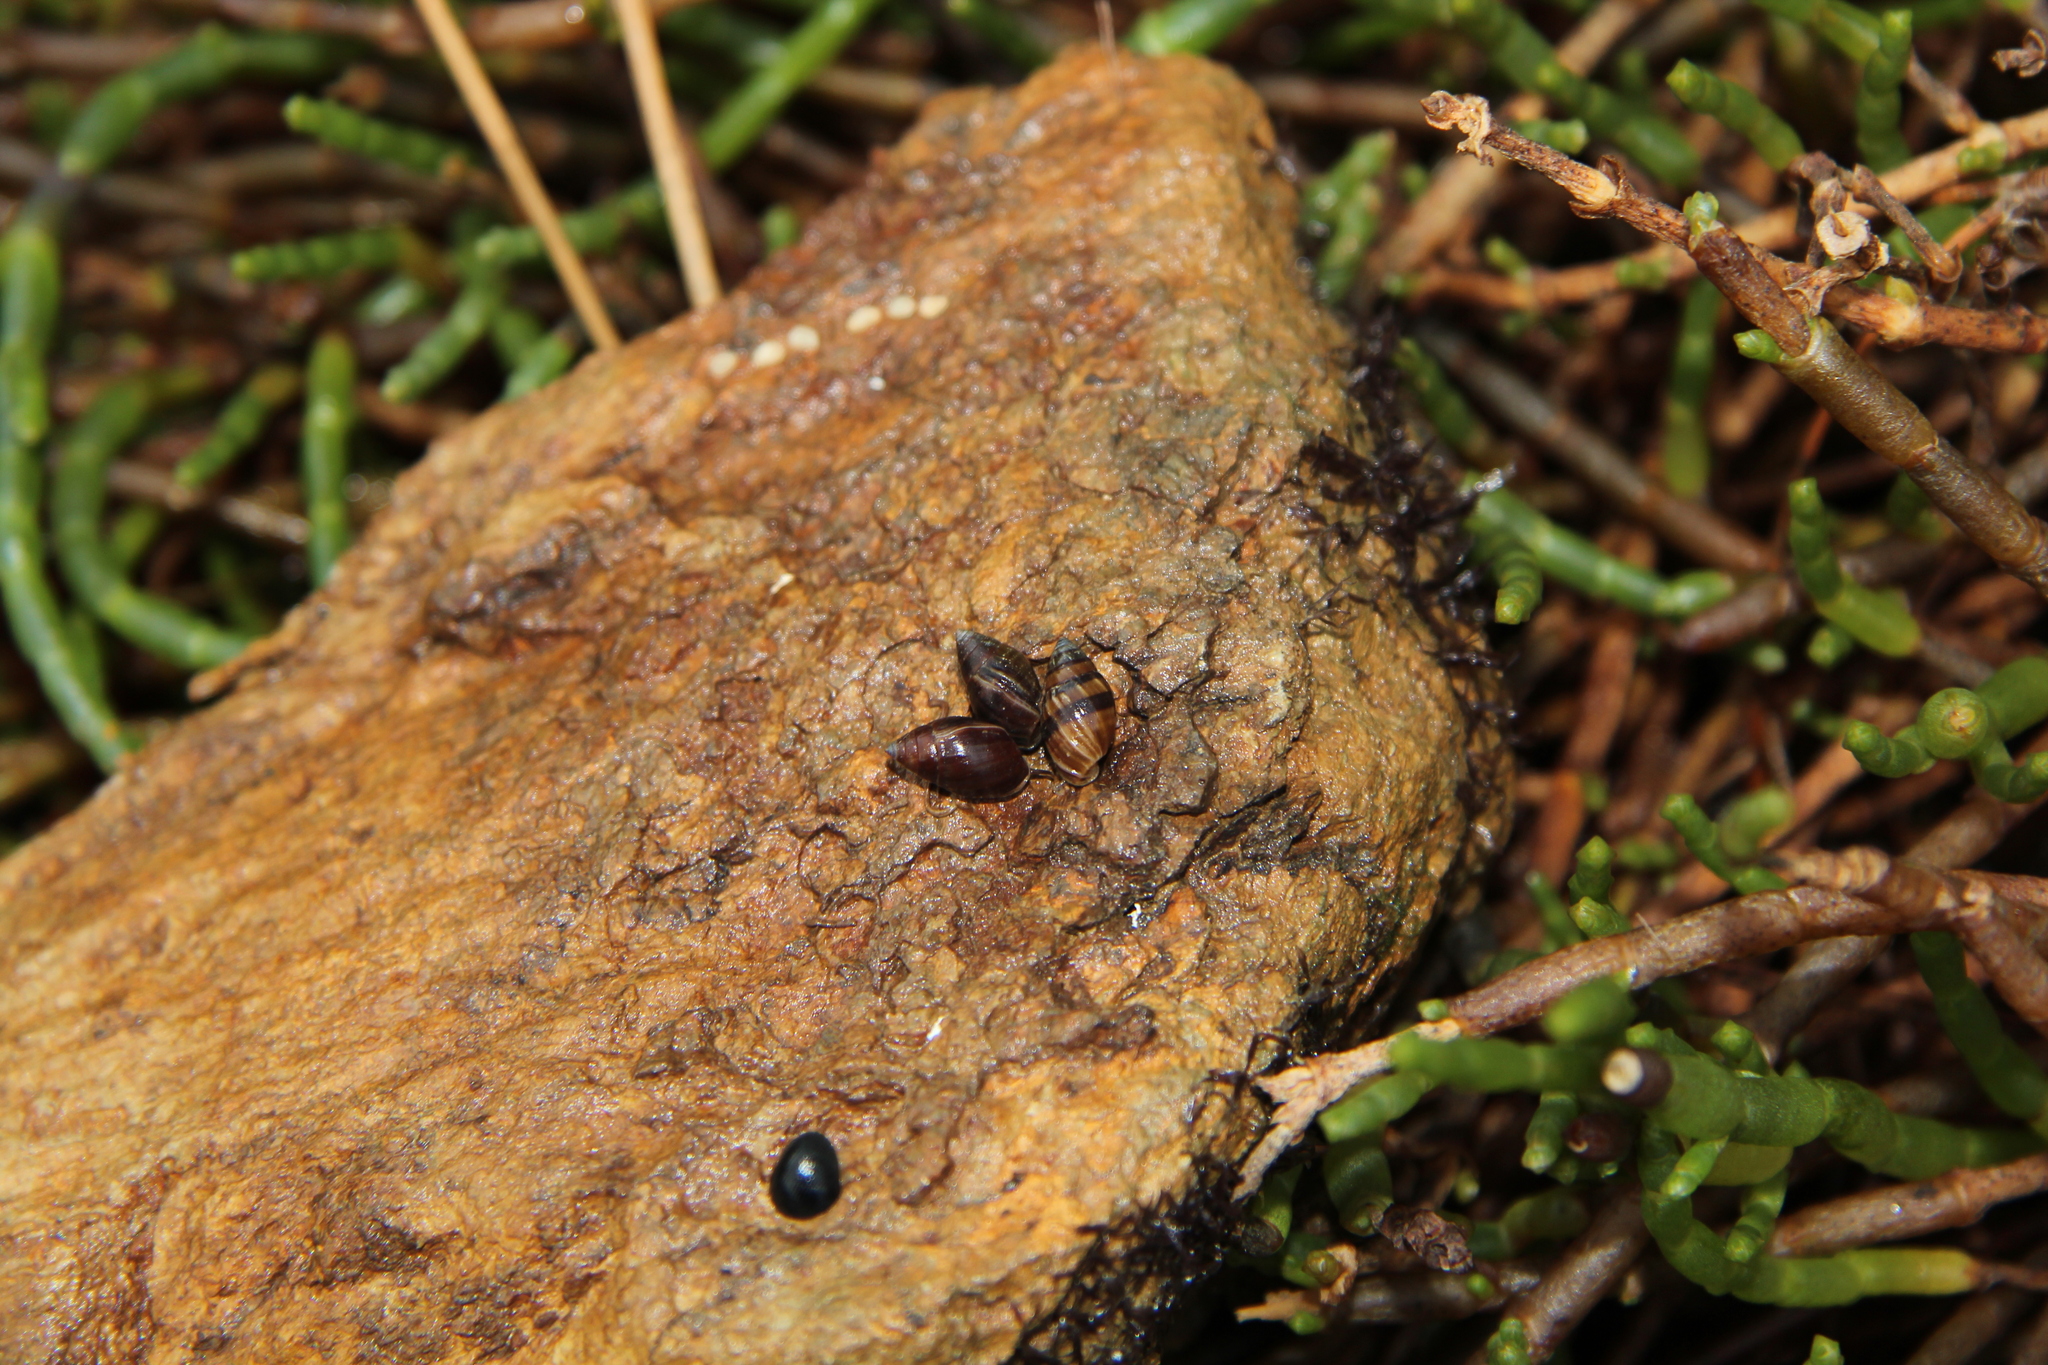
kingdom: Animalia
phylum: Mollusca
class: Gastropoda
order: Ellobiida
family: Ellobiidae
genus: Pleuroloba
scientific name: Pleuroloba costellaris
